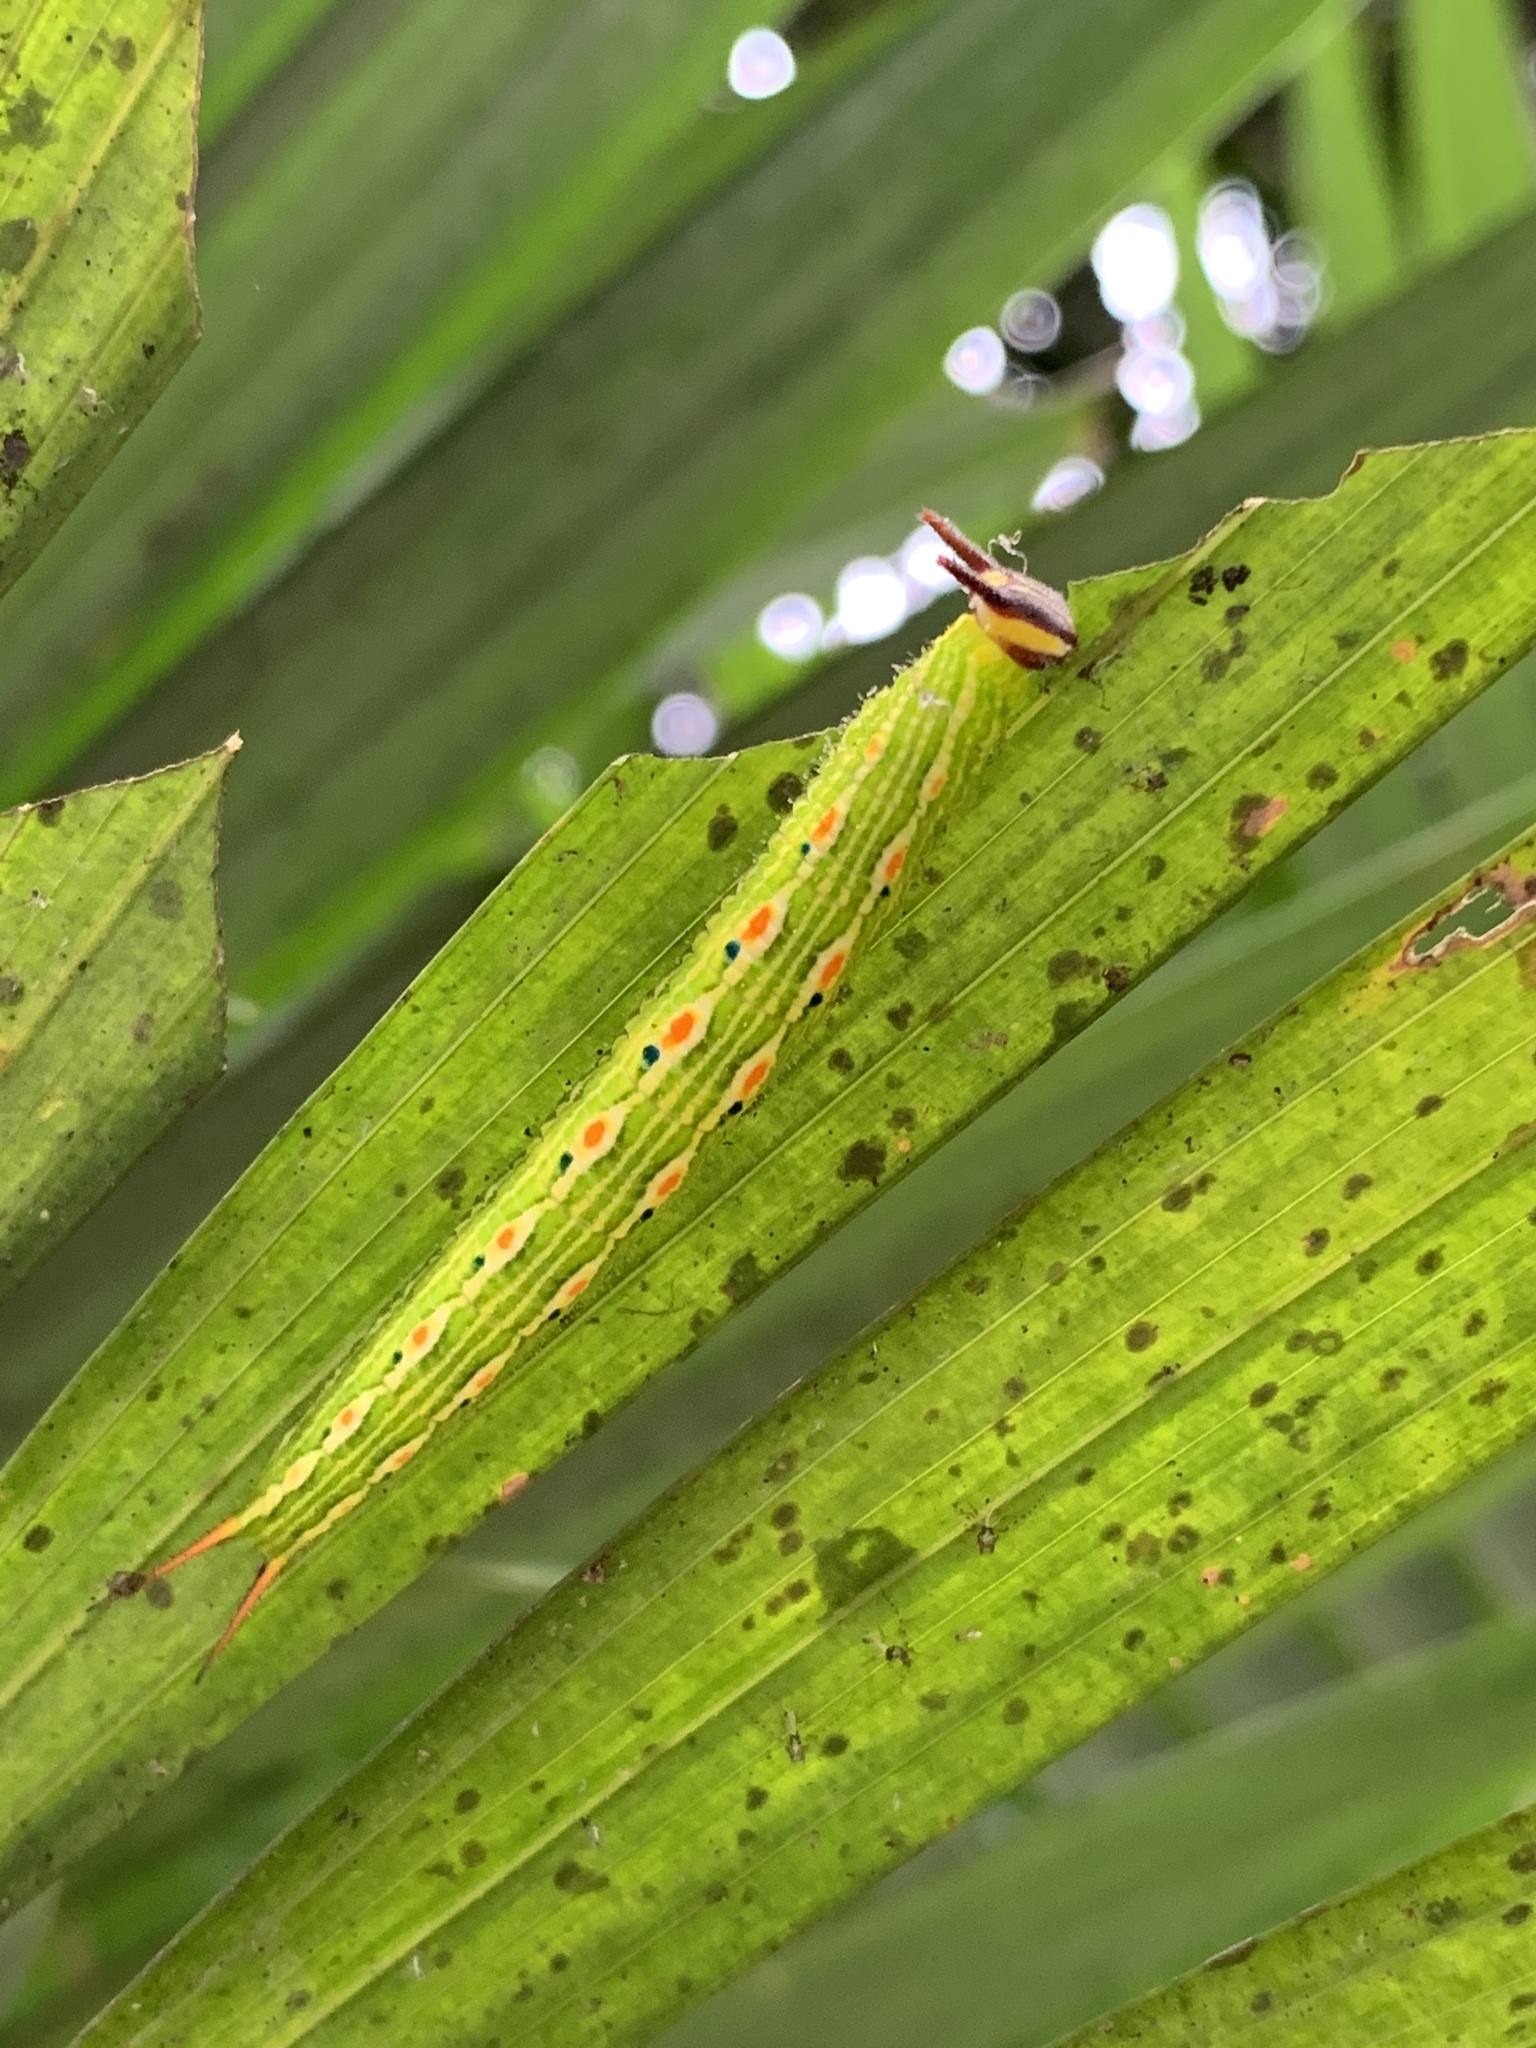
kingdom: Animalia
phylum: Arthropoda
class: Insecta
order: Lepidoptera
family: Nymphalidae
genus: Elymnias
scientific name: Elymnias hypermnestra
